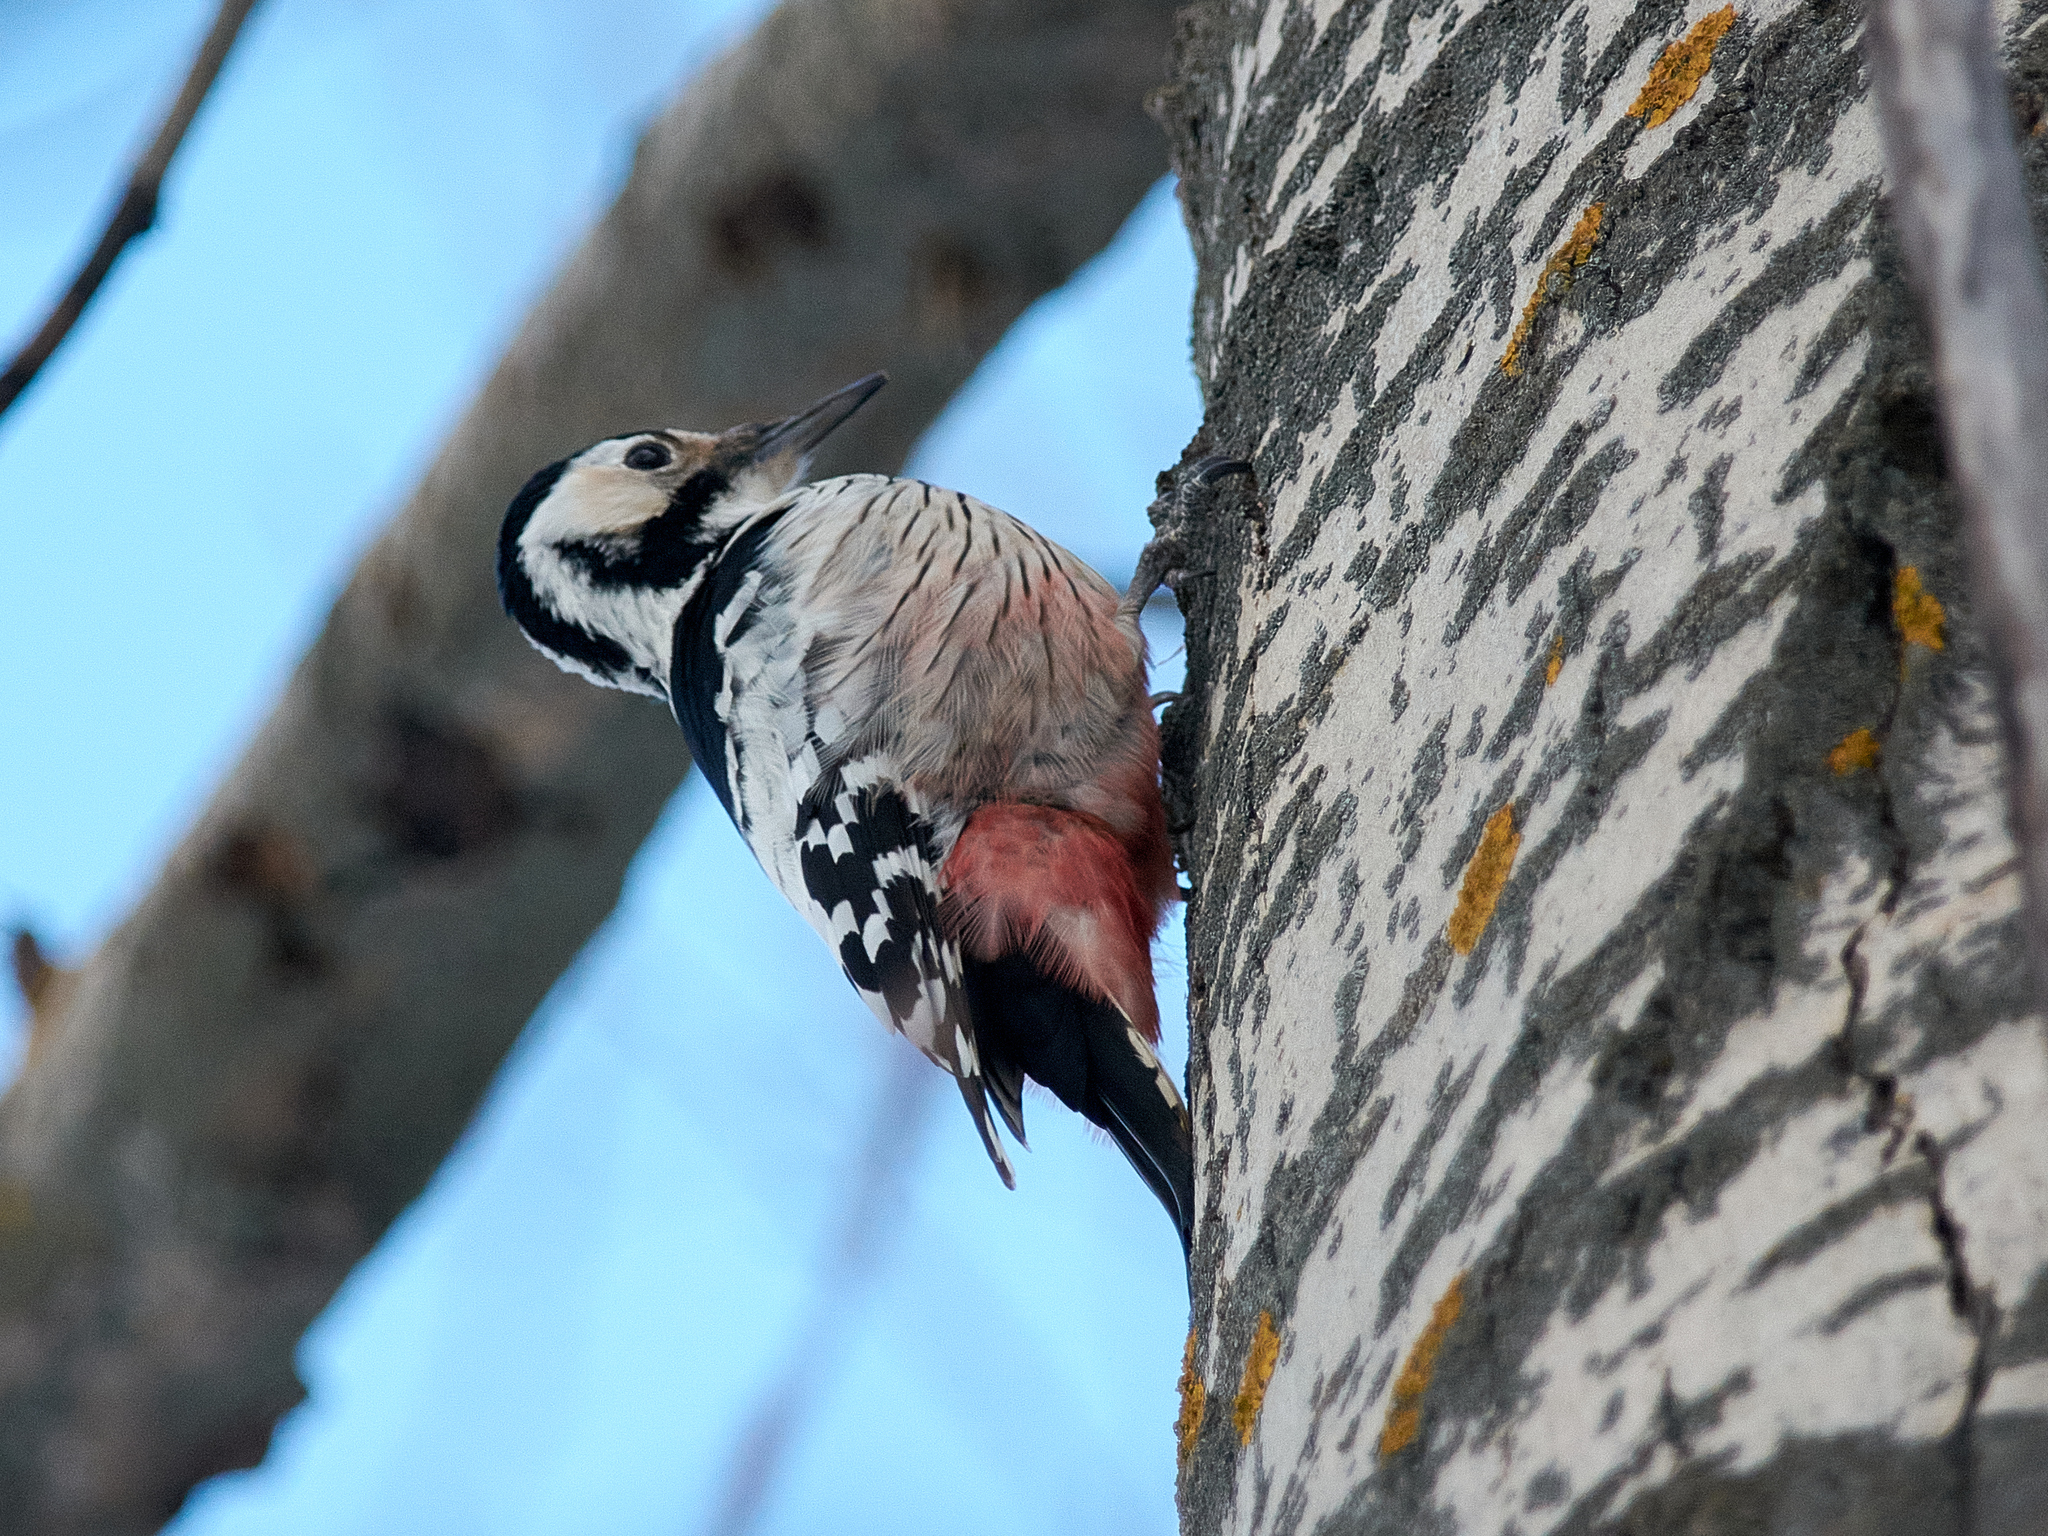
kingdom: Animalia
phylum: Chordata
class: Aves
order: Piciformes
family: Picidae
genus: Dendrocopos
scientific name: Dendrocopos leucotos
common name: White-backed woodpecker
